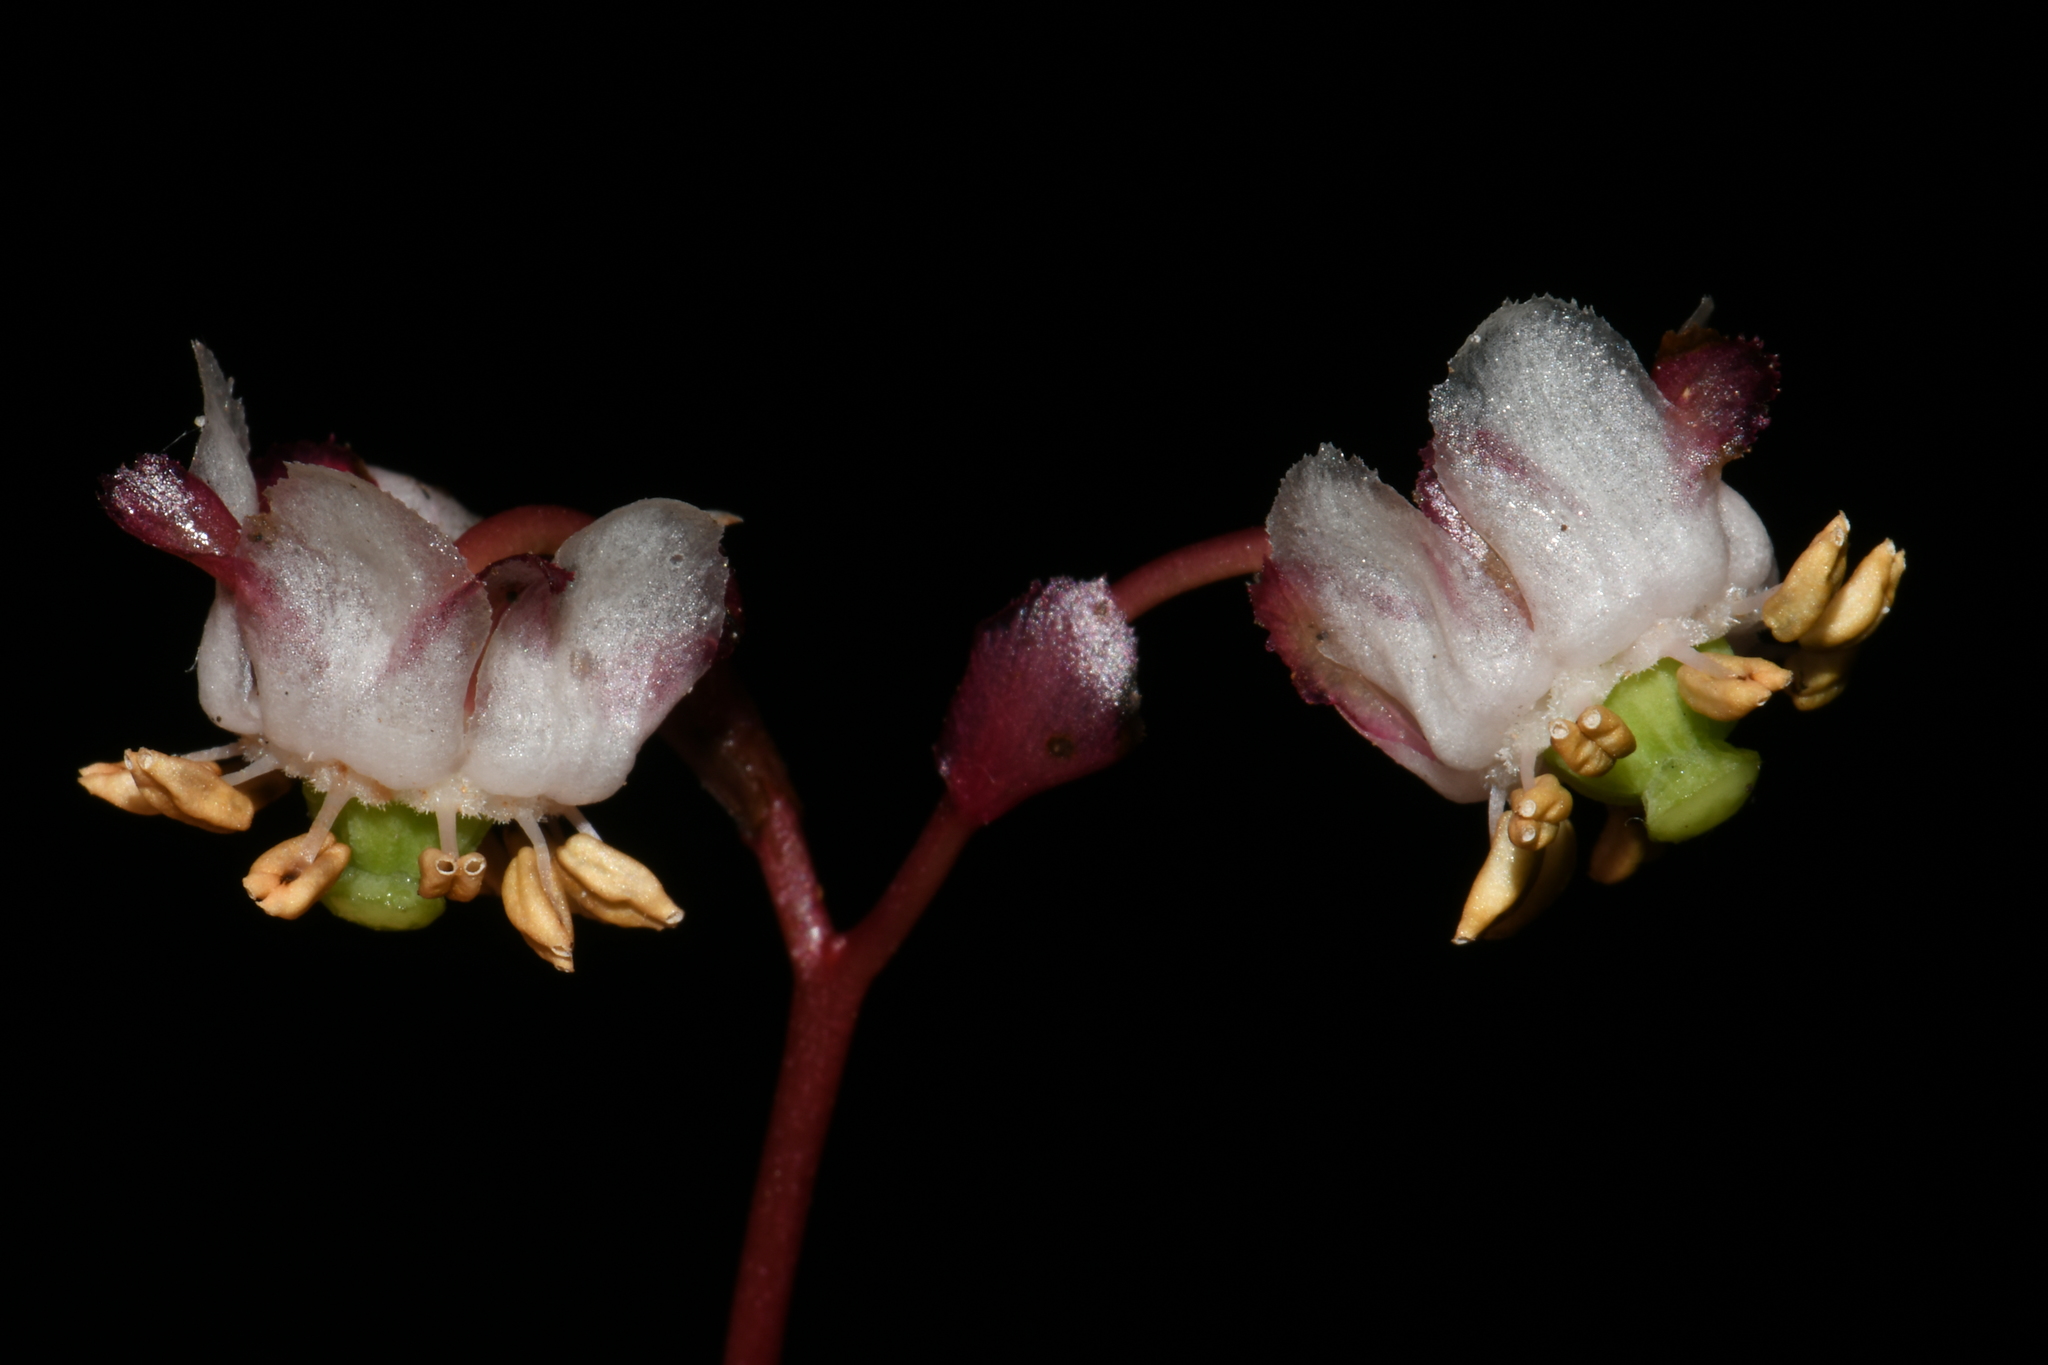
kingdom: Plantae
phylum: Tracheophyta
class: Magnoliopsida
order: Ericales
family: Ericaceae
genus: Chimaphila
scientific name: Chimaphila menziesii
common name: Menzies' pipsissewa
